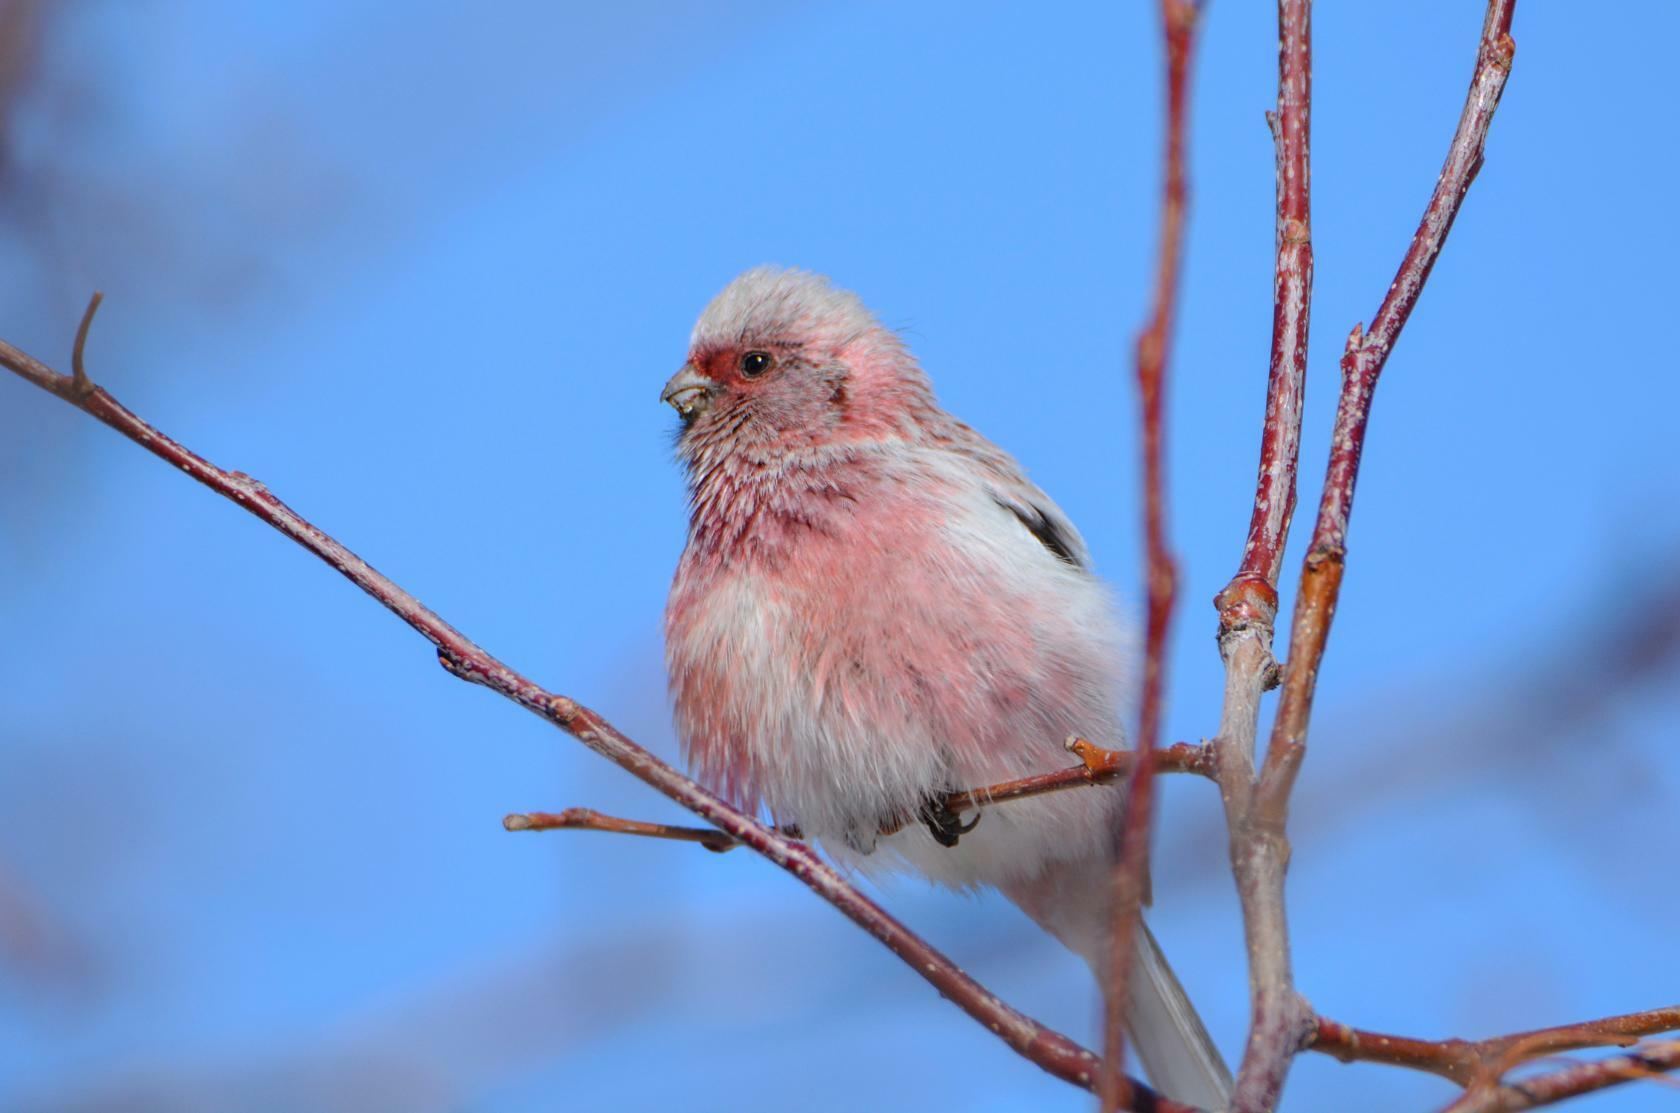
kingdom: Animalia
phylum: Chordata
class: Aves
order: Passeriformes
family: Fringillidae
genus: Carpodacus
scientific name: Carpodacus sibiricus
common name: Long-tailed rosefinch
